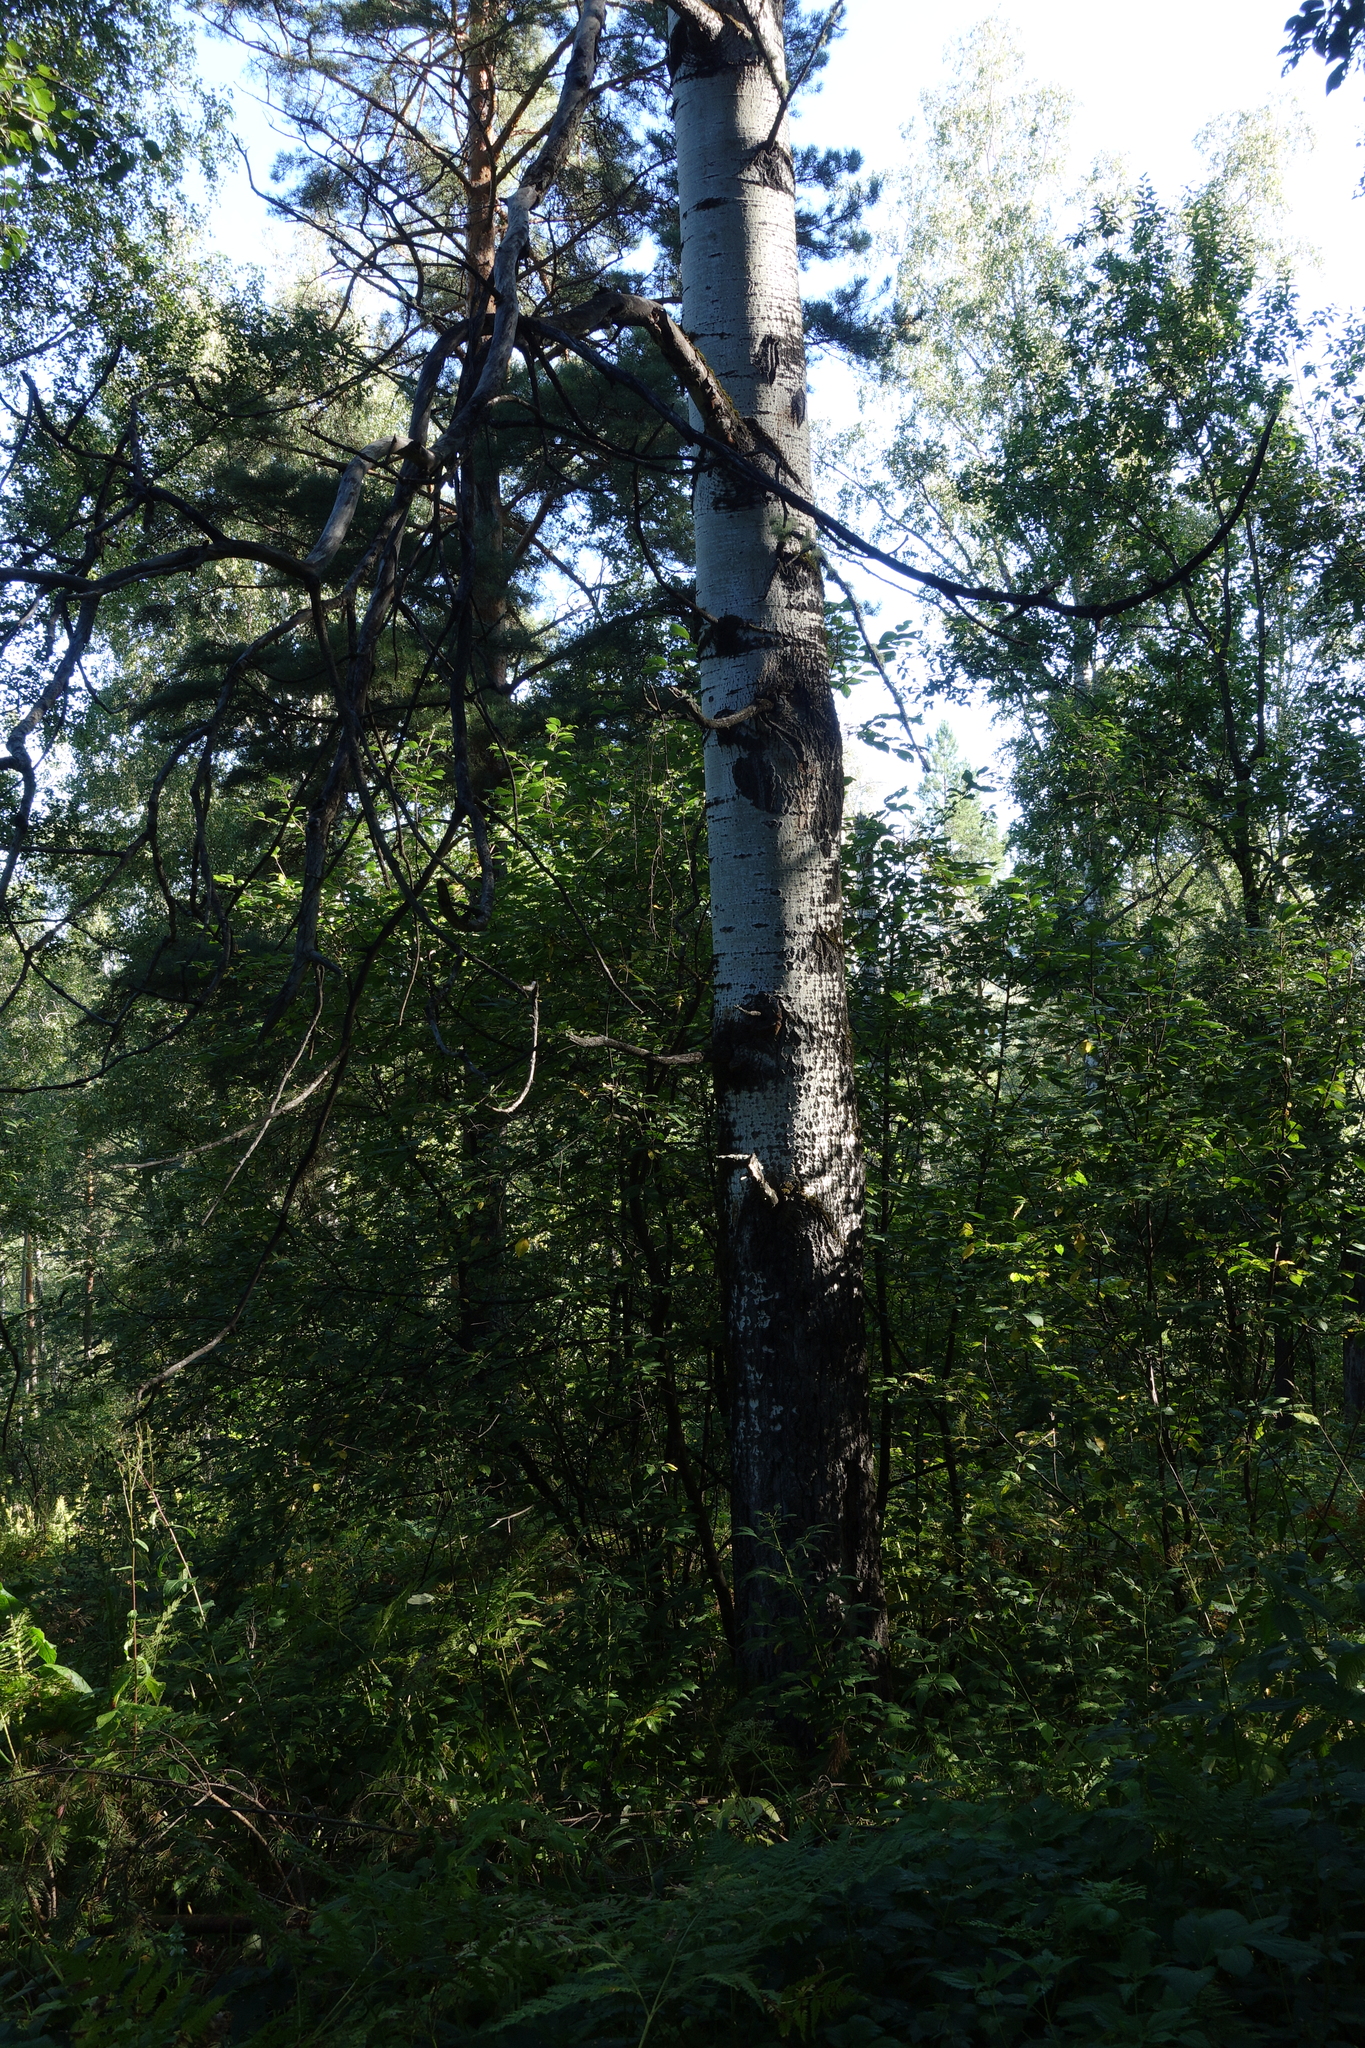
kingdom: Plantae
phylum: Tracheophyta
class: Magnoliopsida
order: Malpighiales
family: Salicaceae
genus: Populus
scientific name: Populus tremula
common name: European aspen
